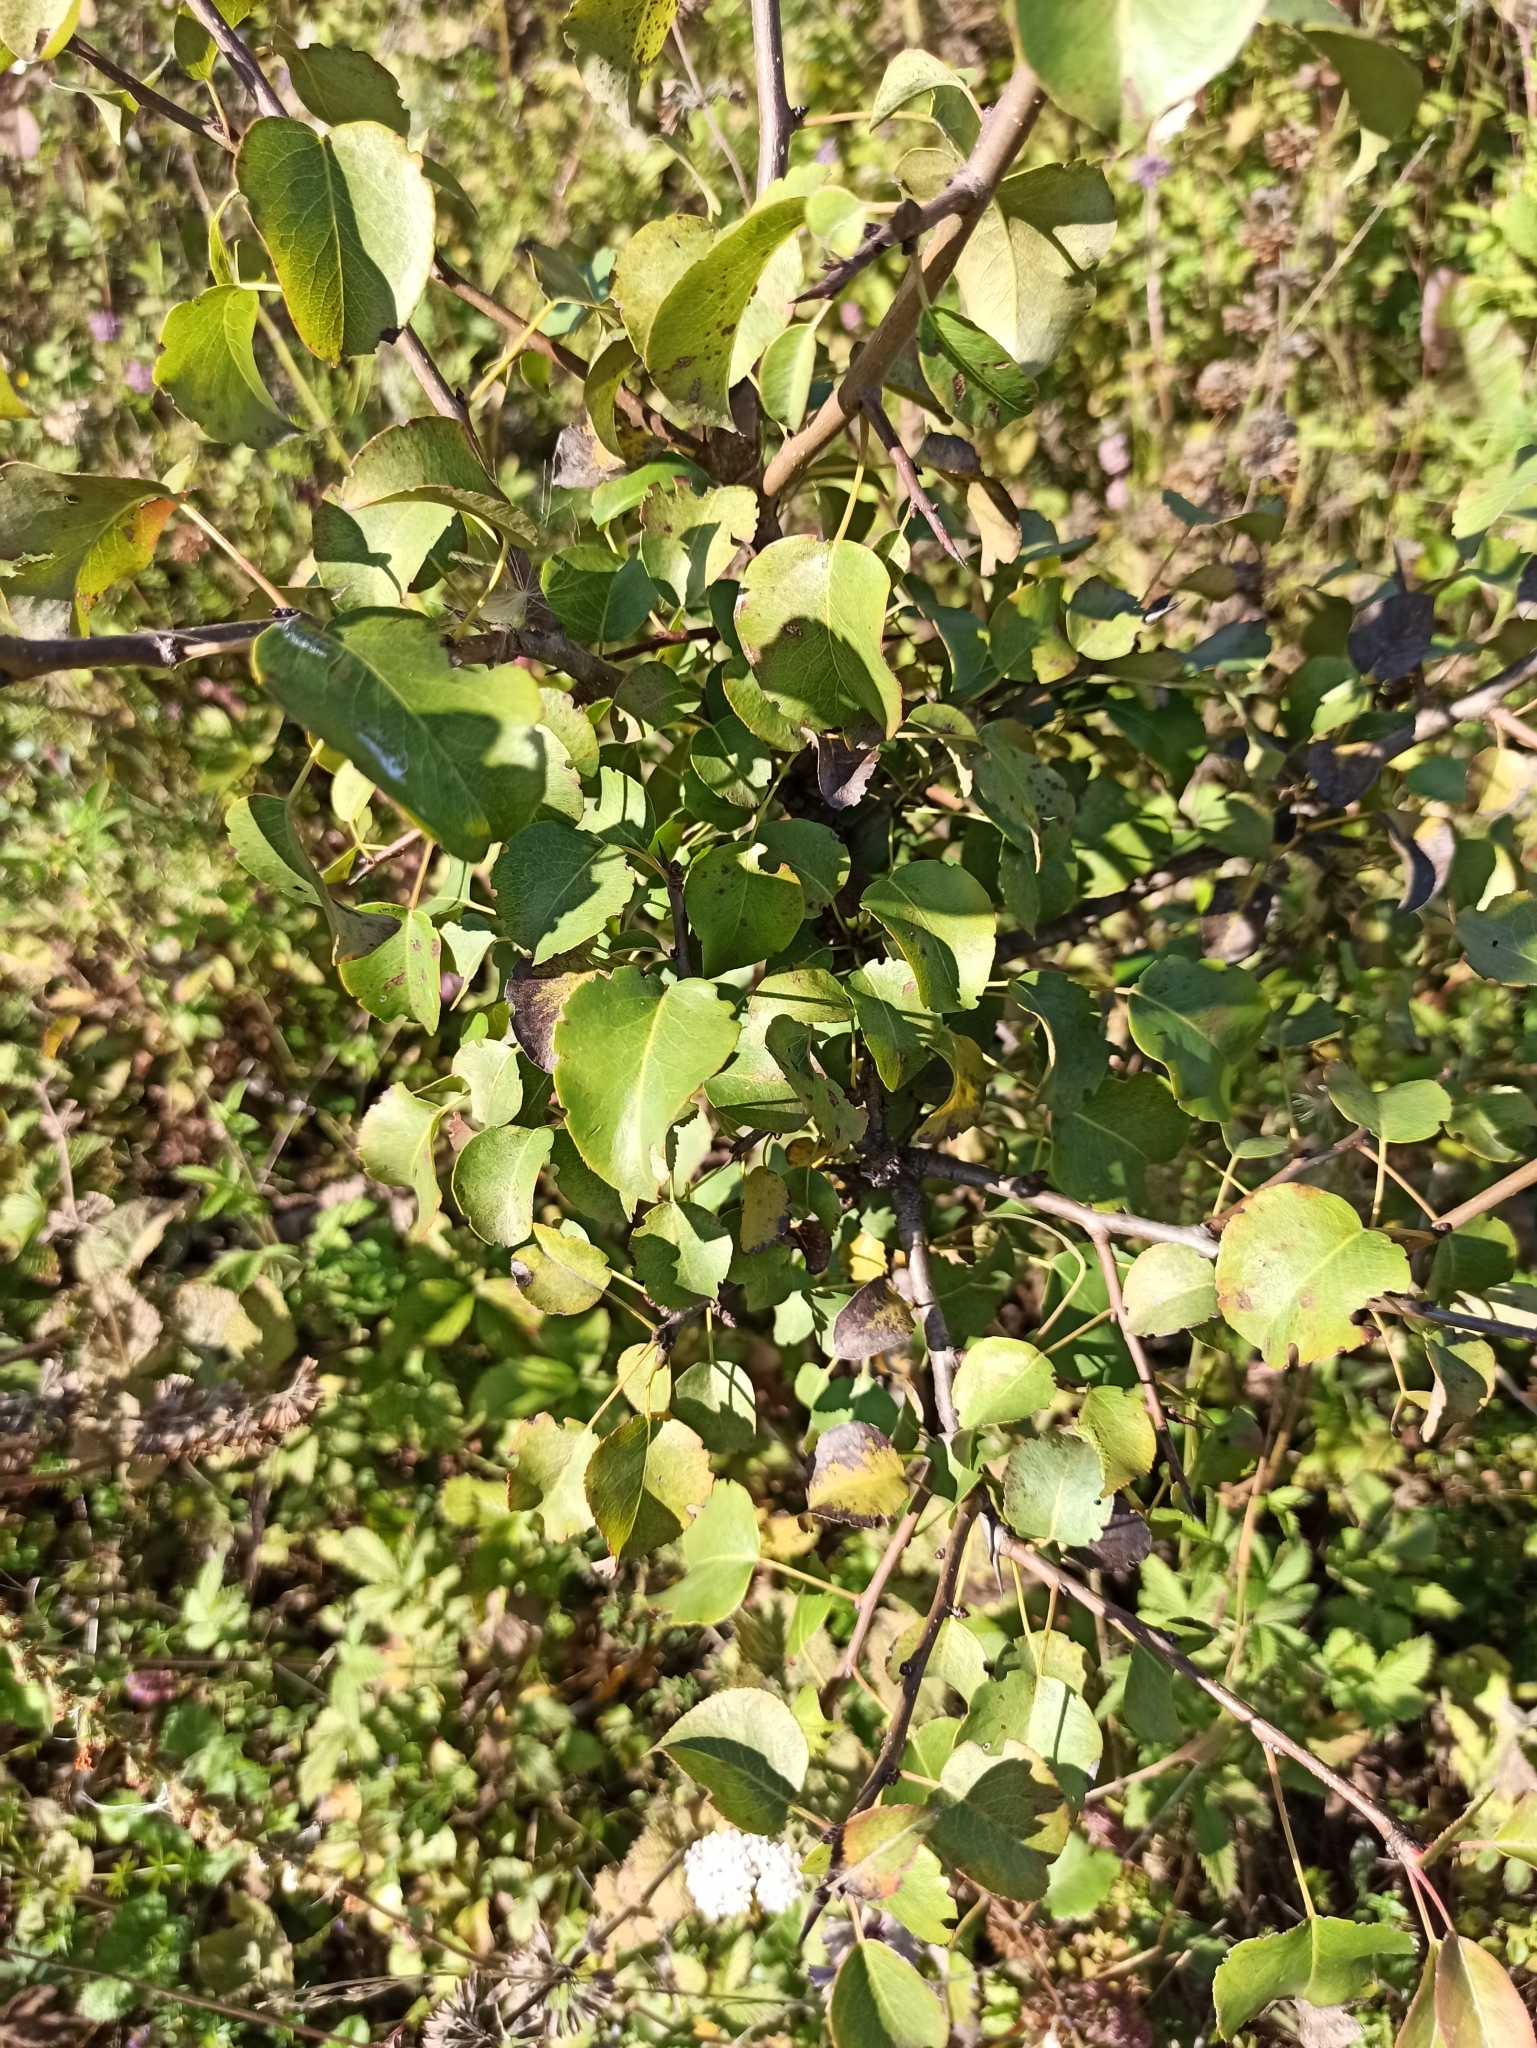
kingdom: Plantae
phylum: Tracheophyta
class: Magnoliopsida
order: Rosales
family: Rosaceae
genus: Pyrus
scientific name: Pyrus communis
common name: Pear
